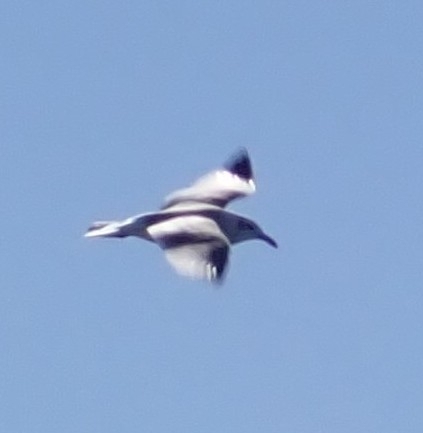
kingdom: Animalia
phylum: Chordata
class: Aves
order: Charadriiformes
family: Laridae
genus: Leucophaeus
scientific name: Leucophaeus atricilla
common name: Laughing gull
